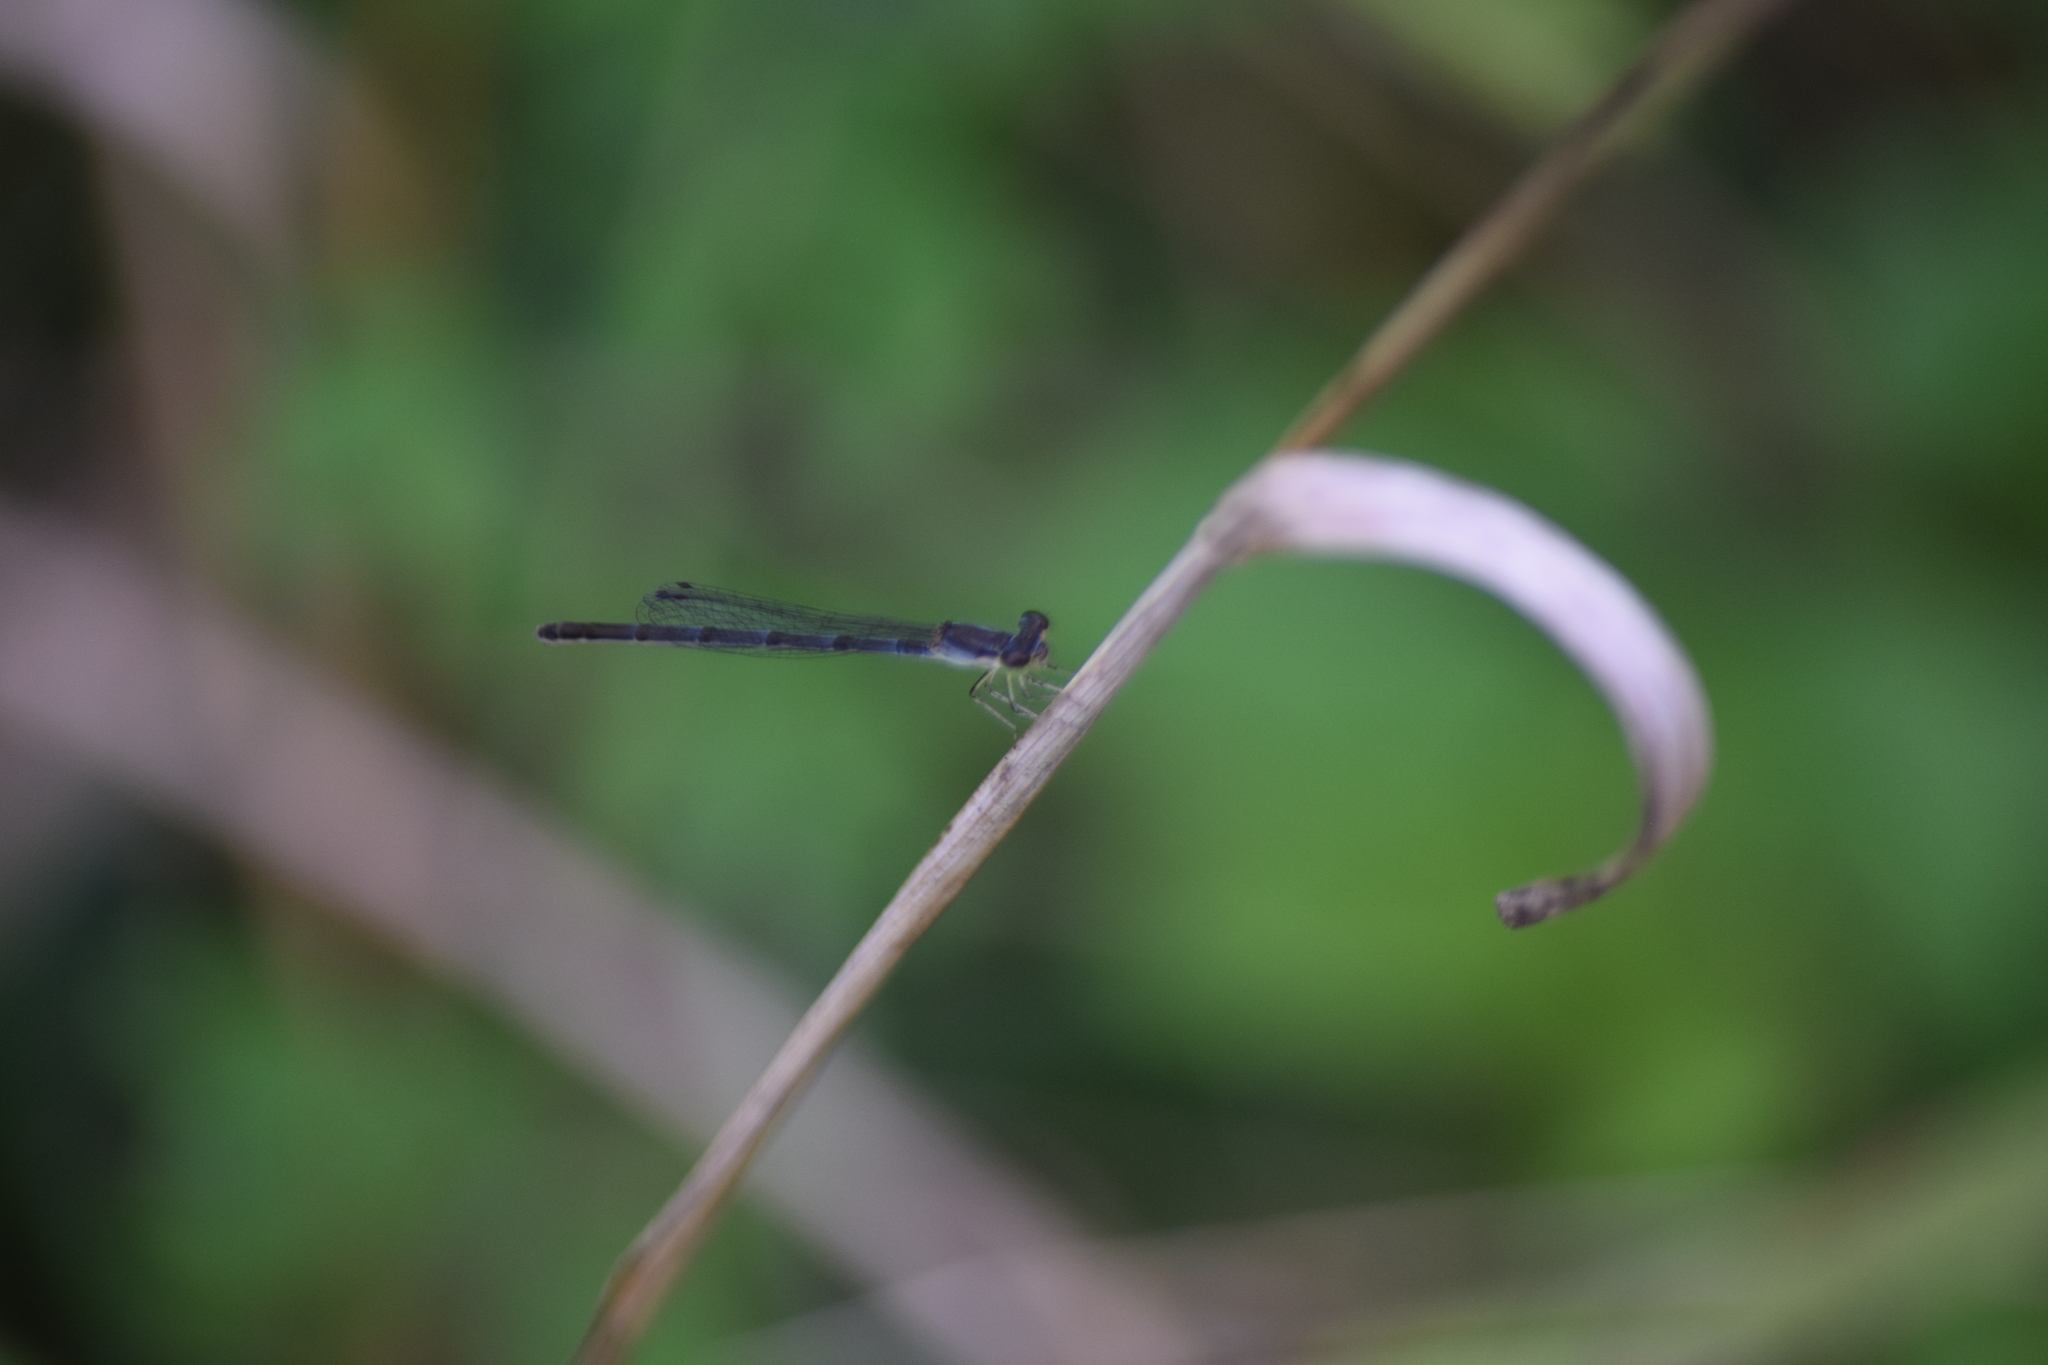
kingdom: Animalia
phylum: Arthropoda
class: Insecta
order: Odonata
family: Coenagrionidae
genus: Ischnura
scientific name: Ischnura posita
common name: Fragile forktail
